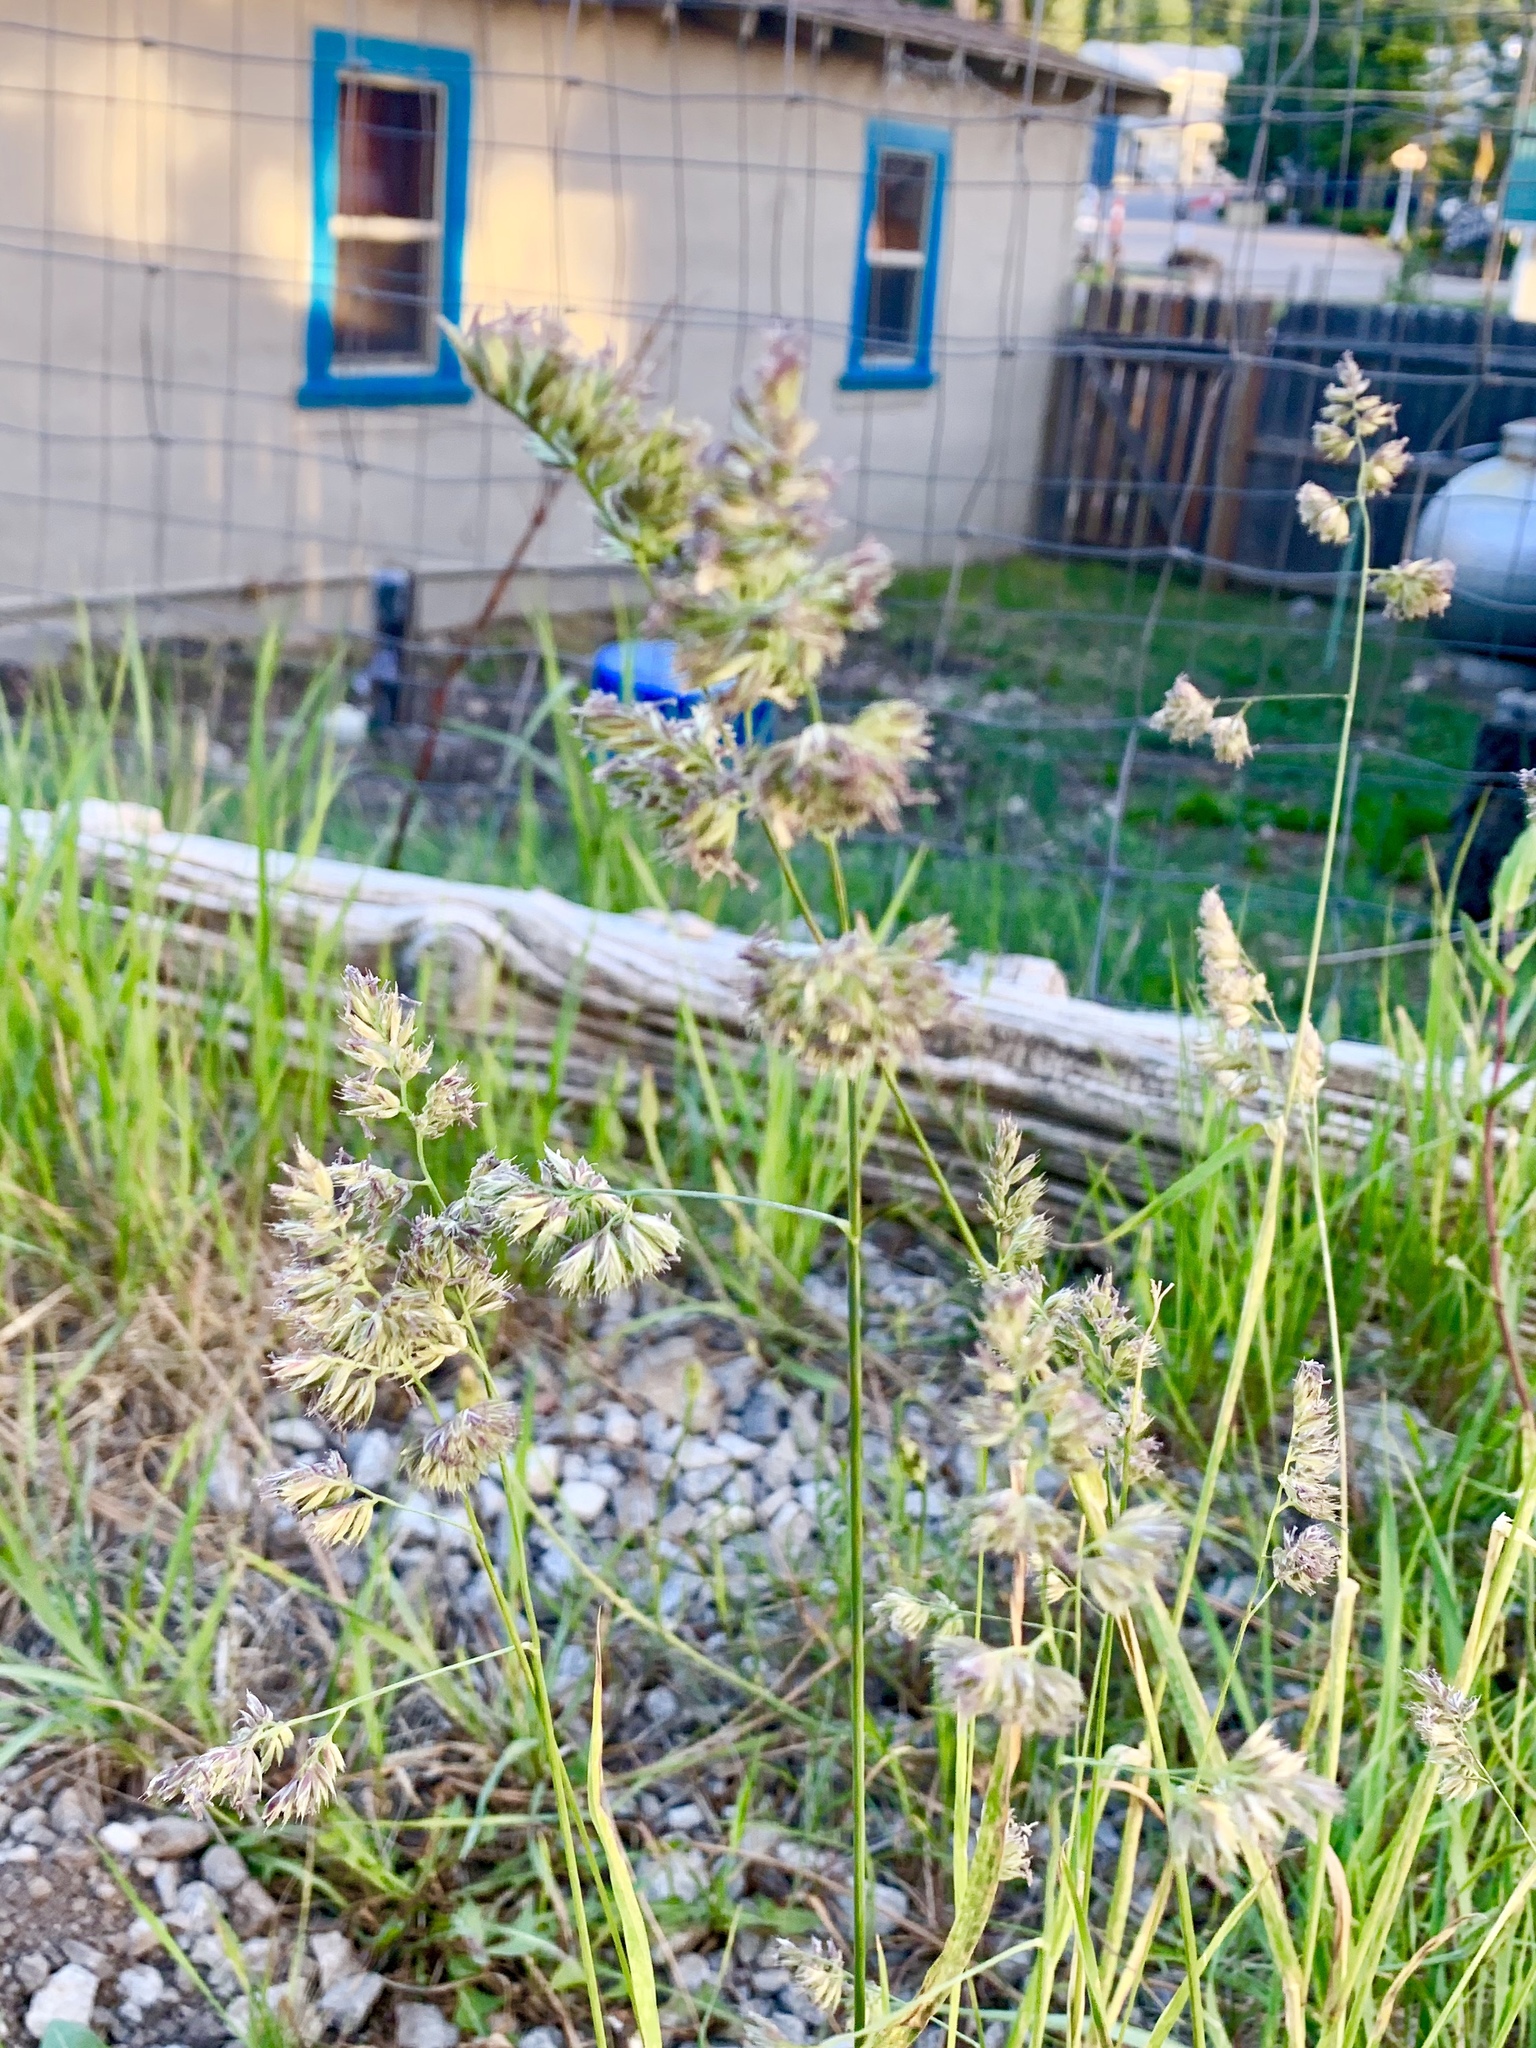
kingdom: Plantae
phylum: Tracheophyta
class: Liliopsida
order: Poales
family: Poaceae
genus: Dactylis
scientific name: Dactylis glomerata
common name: Orchardgrass
